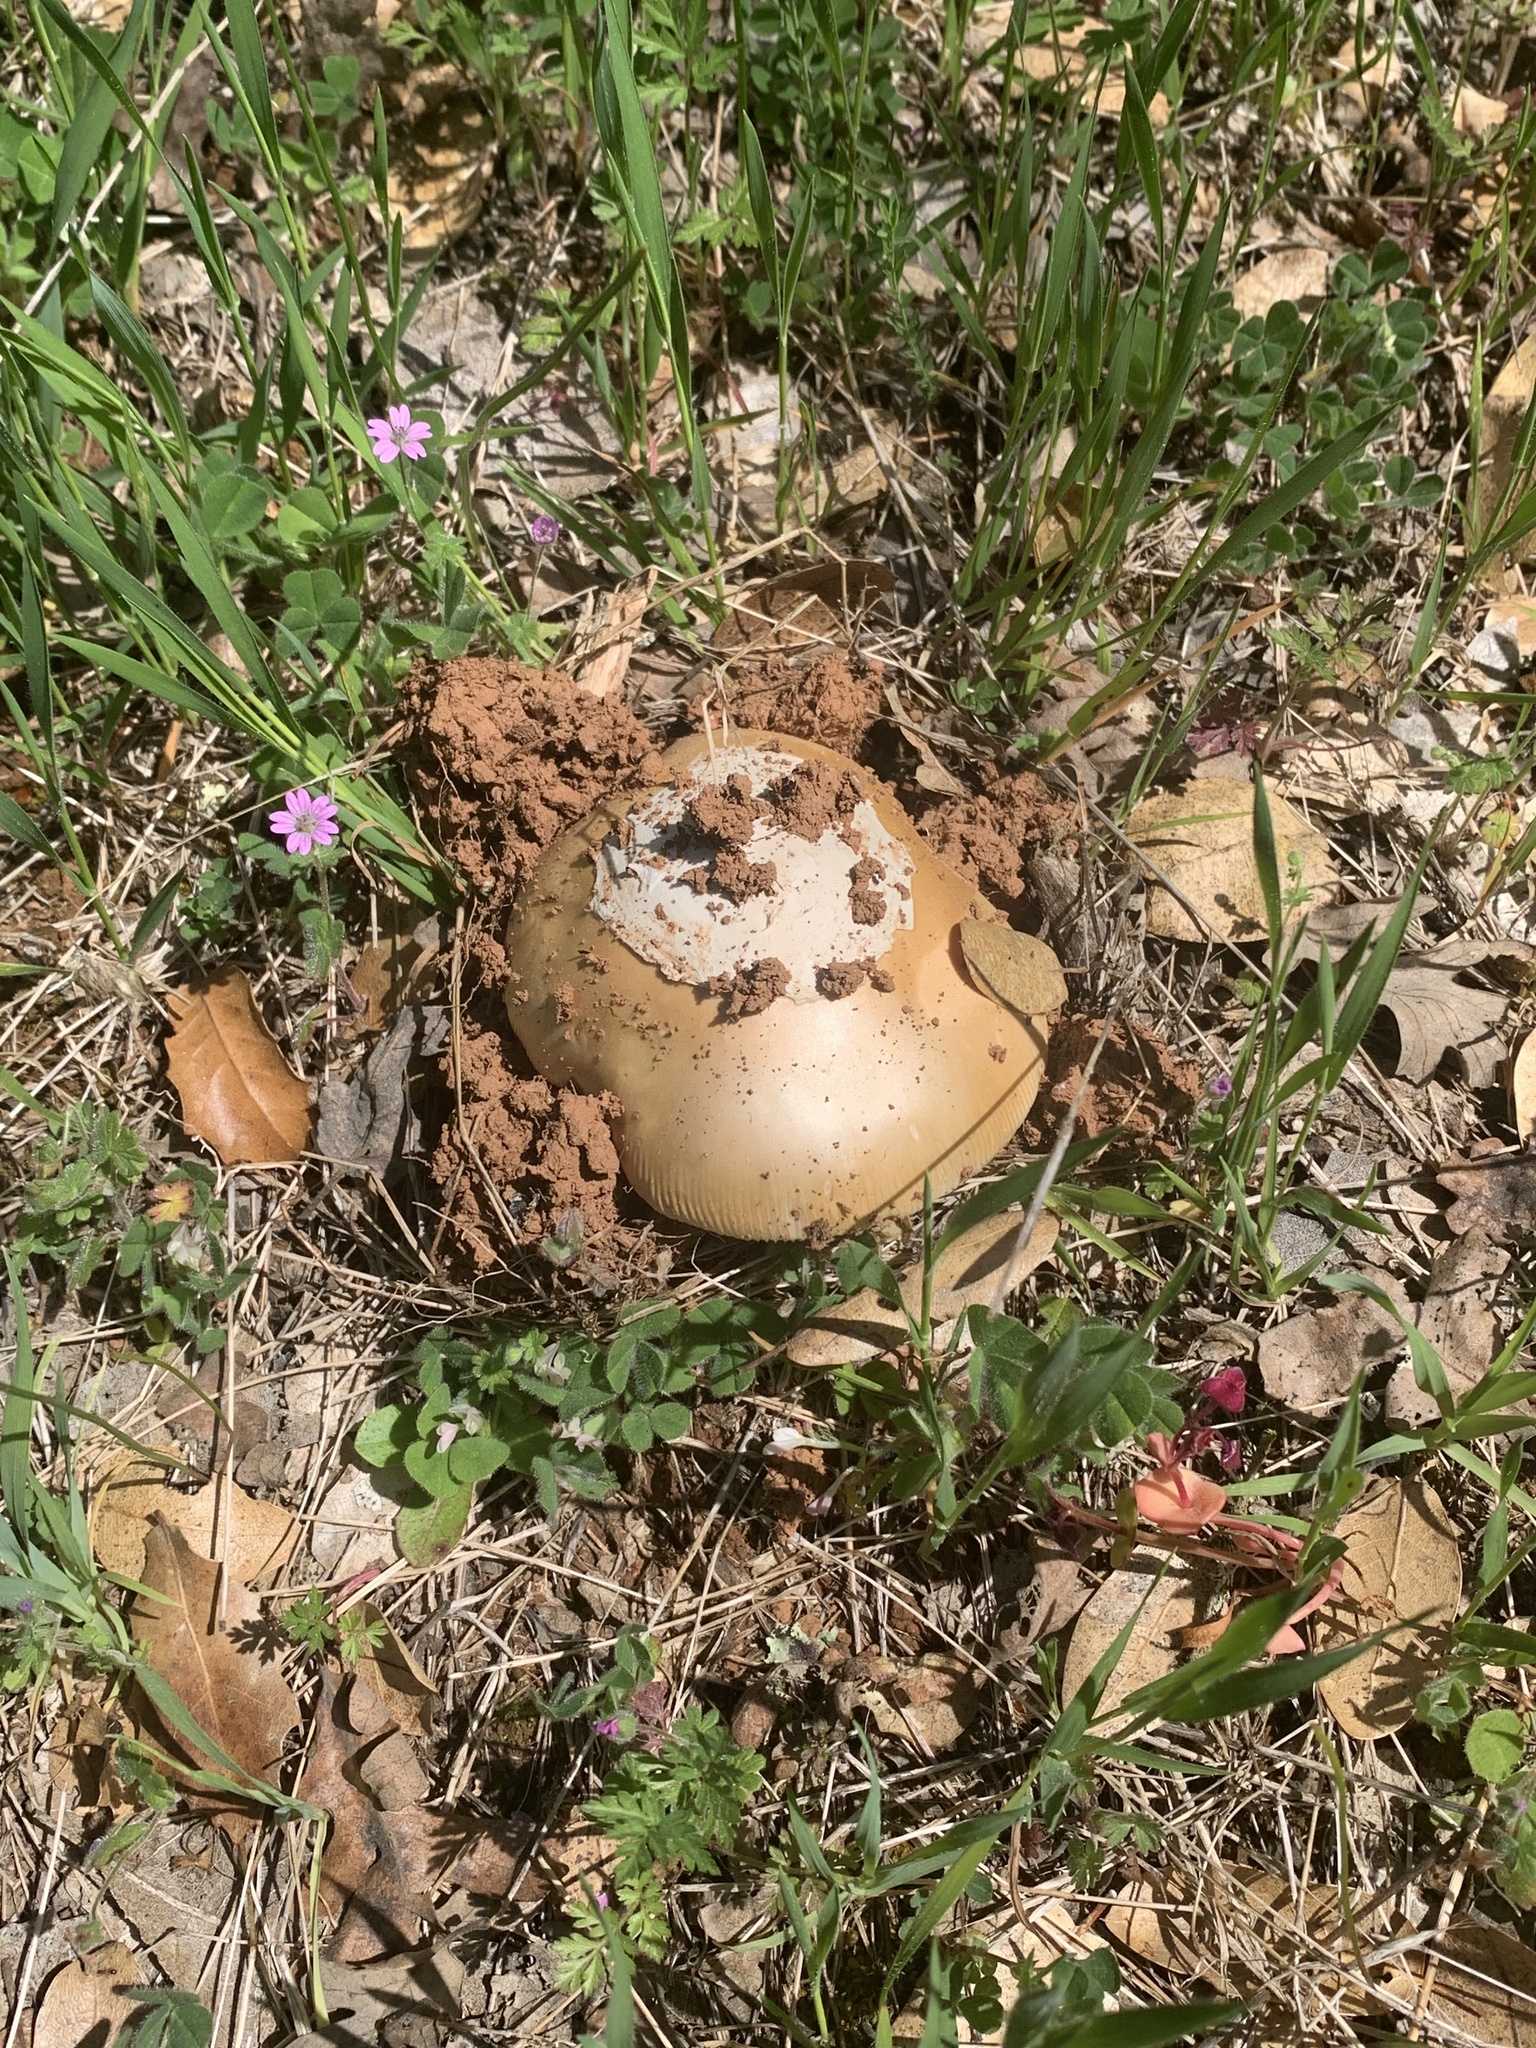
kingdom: Fungi
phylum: Basidiomycota
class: Agaricomycetes
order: Agaricales
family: Amanitaceae
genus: Amanita
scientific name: Amanita velosa
